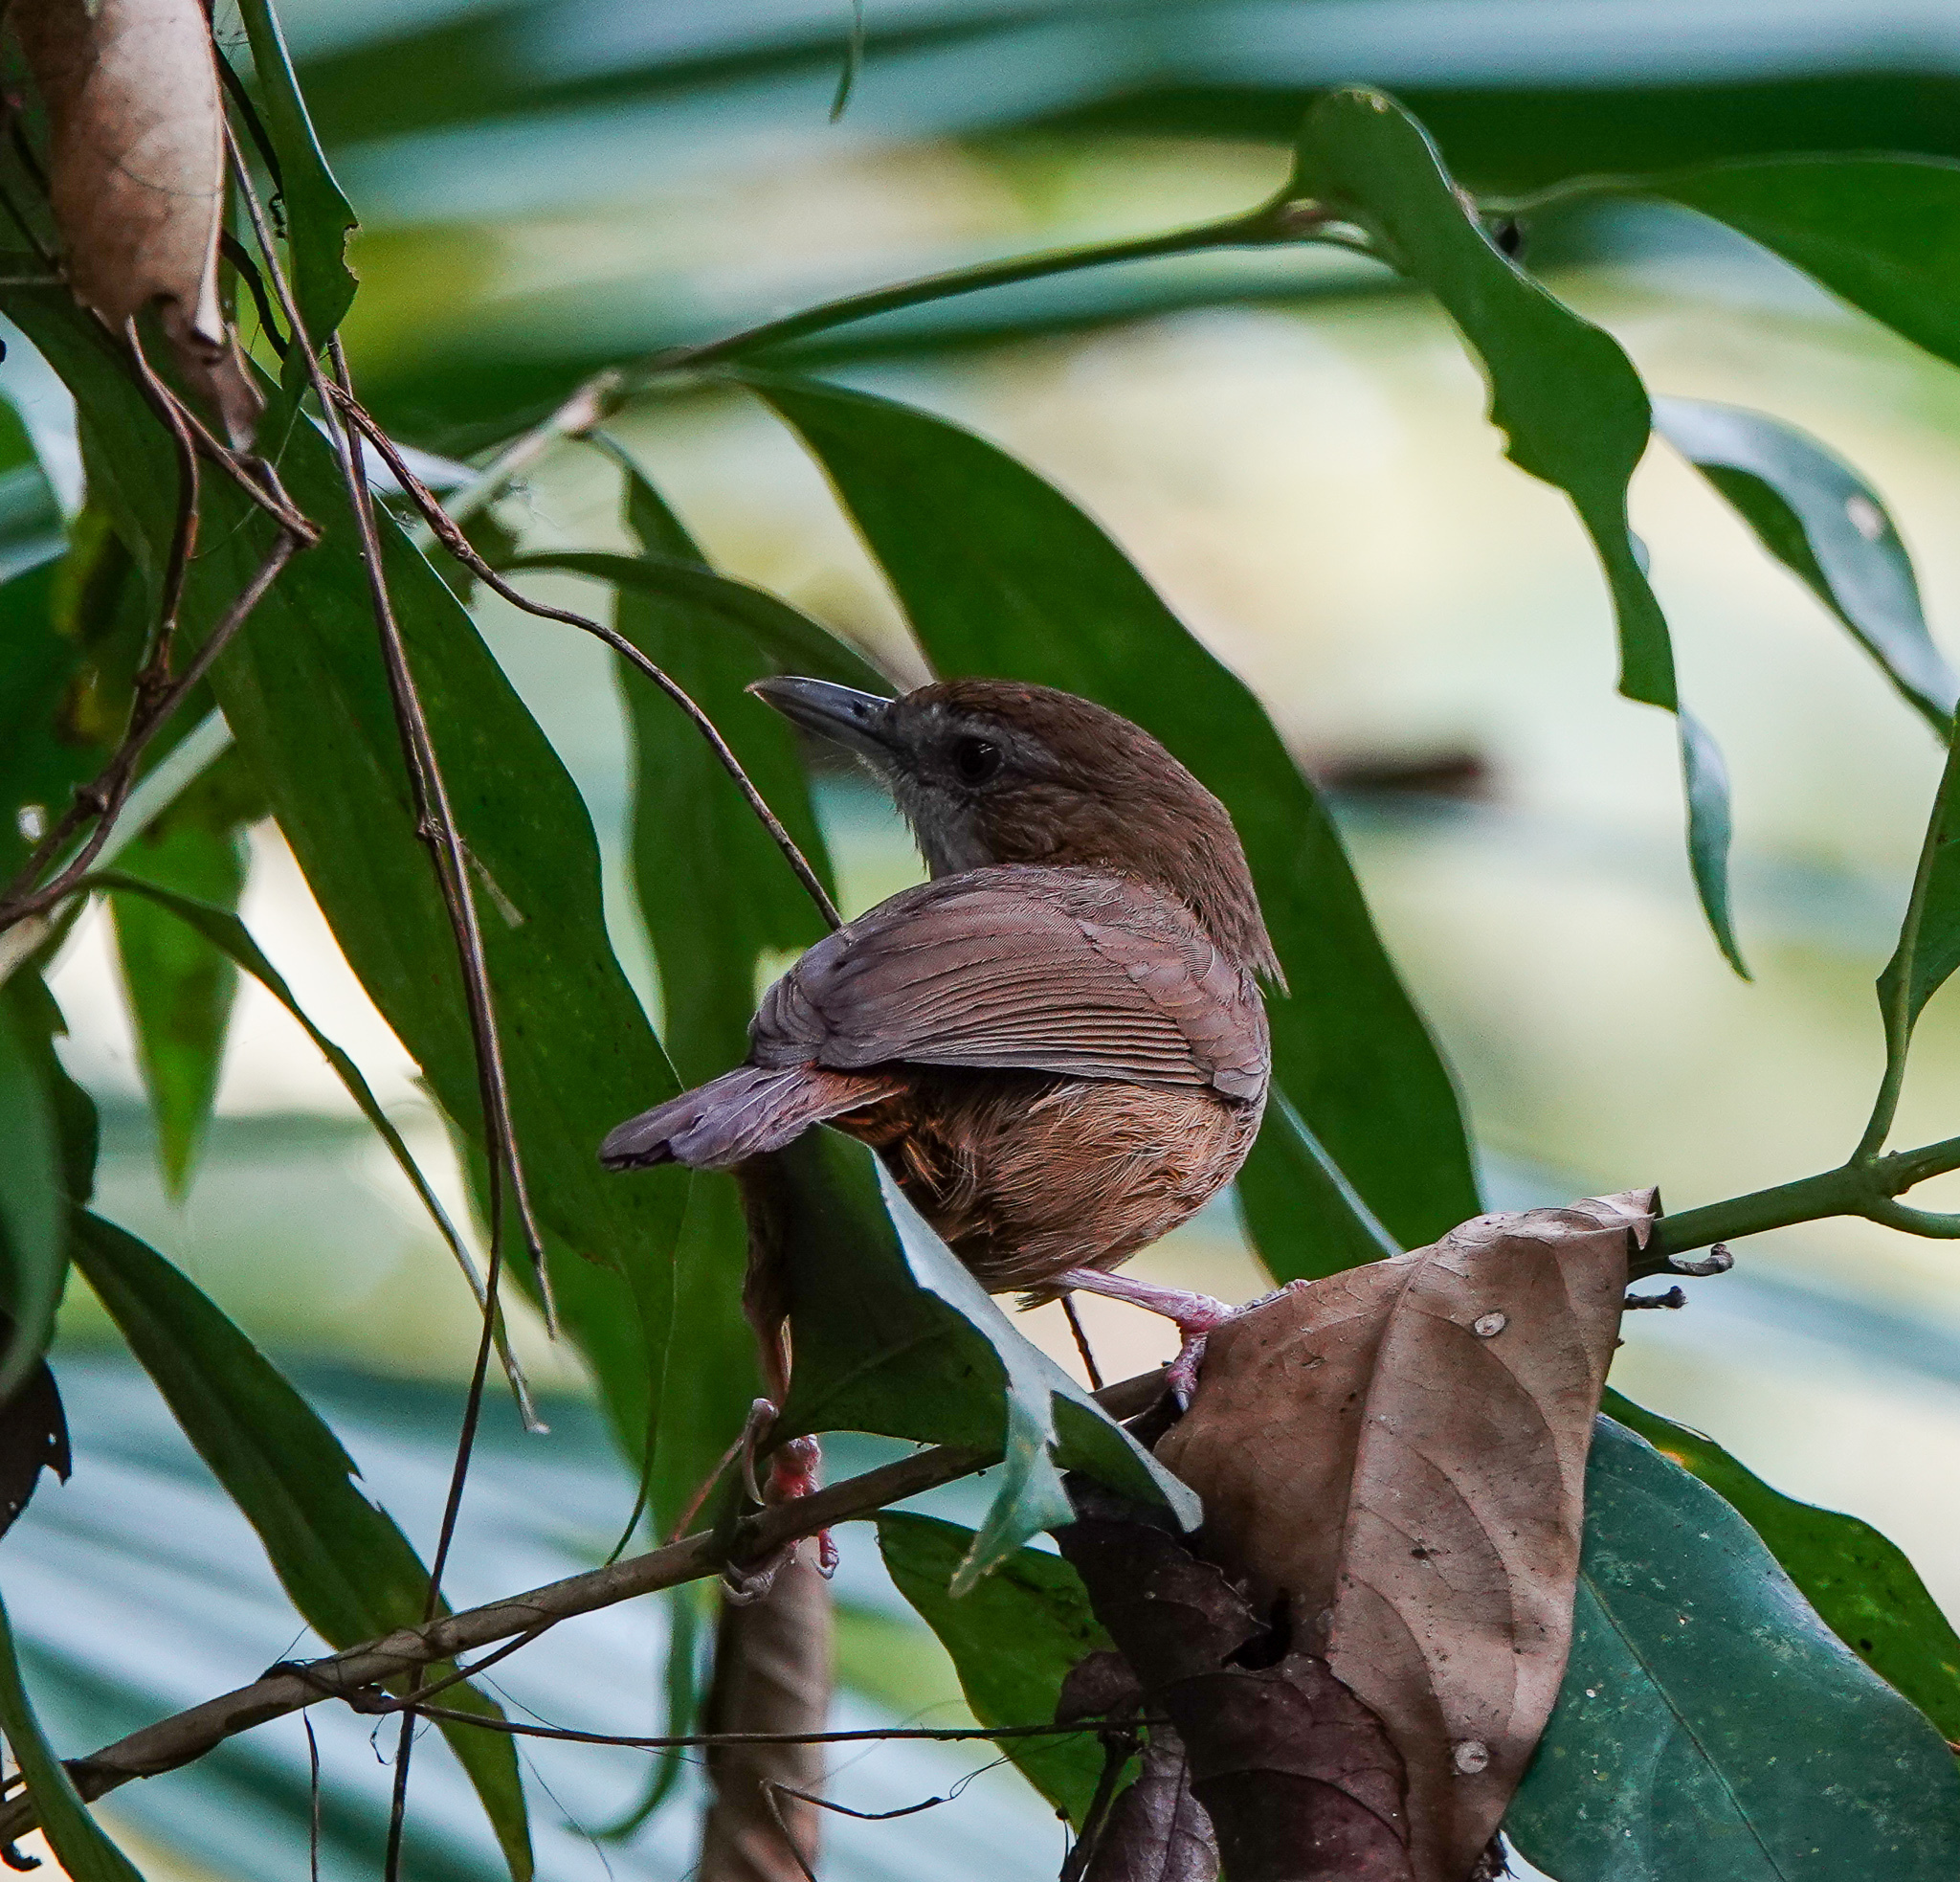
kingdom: Animalia
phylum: Chordata
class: Aves
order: Passeriformes
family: Pellorneidae
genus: Malacocincla
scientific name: Malacocincla abbotti
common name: Abbott's babbler
